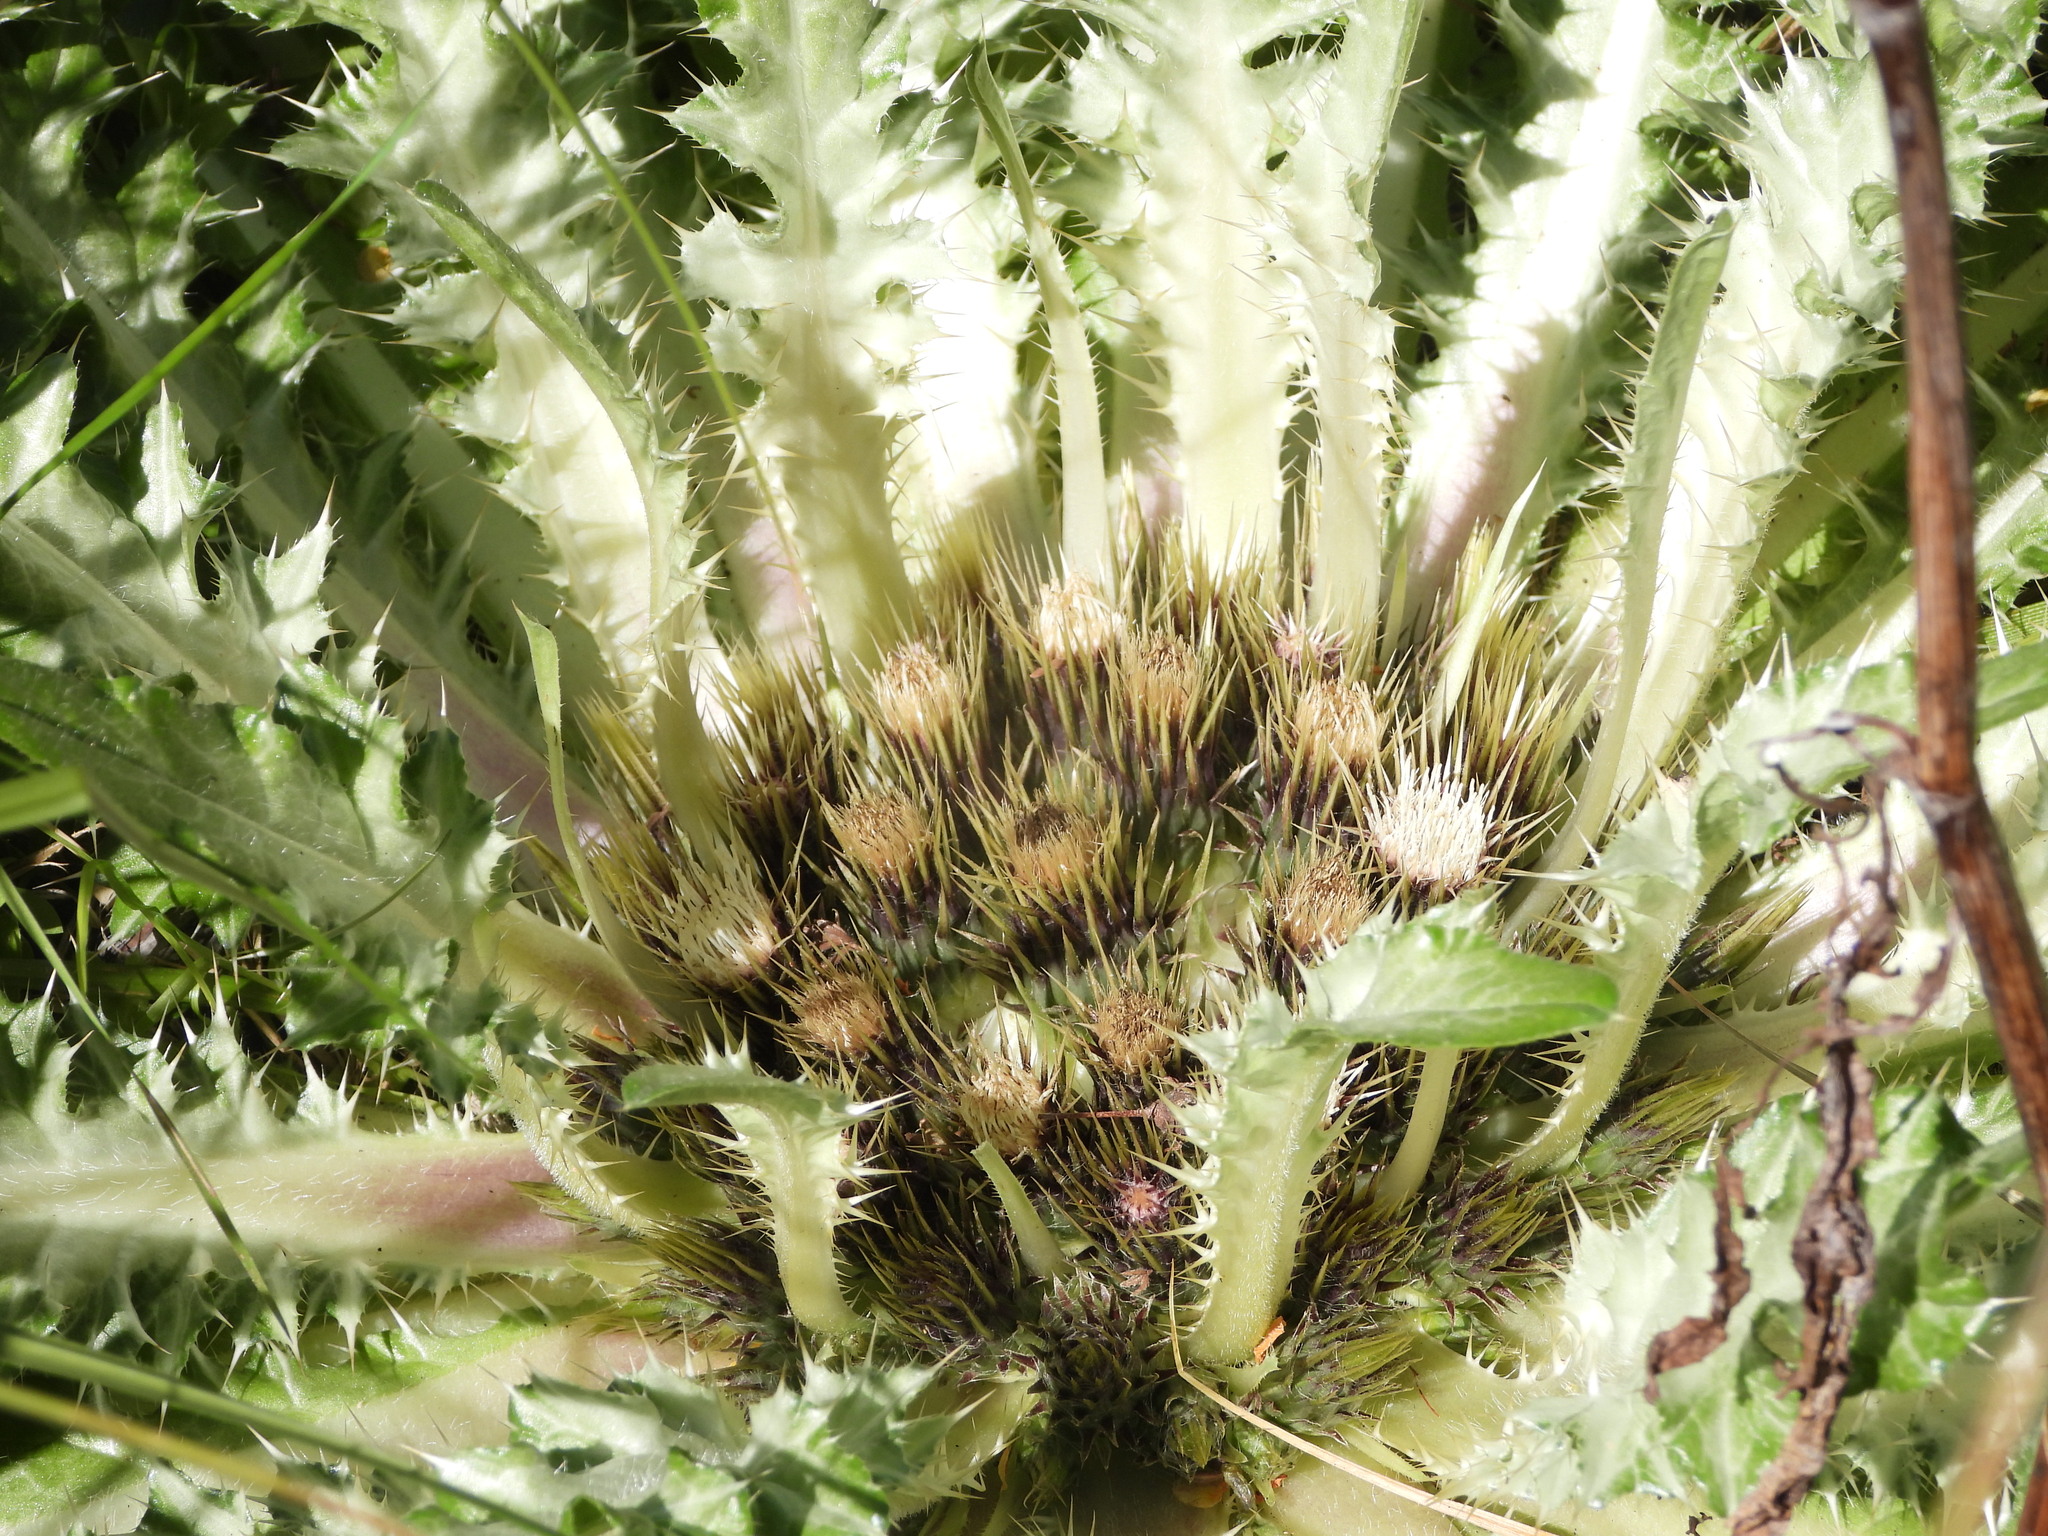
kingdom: Plantae
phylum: Tracheophyta
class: Magnoliopsida
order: Asterales
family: Asteraceae
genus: Cirsium
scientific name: Cirsium tioganum
